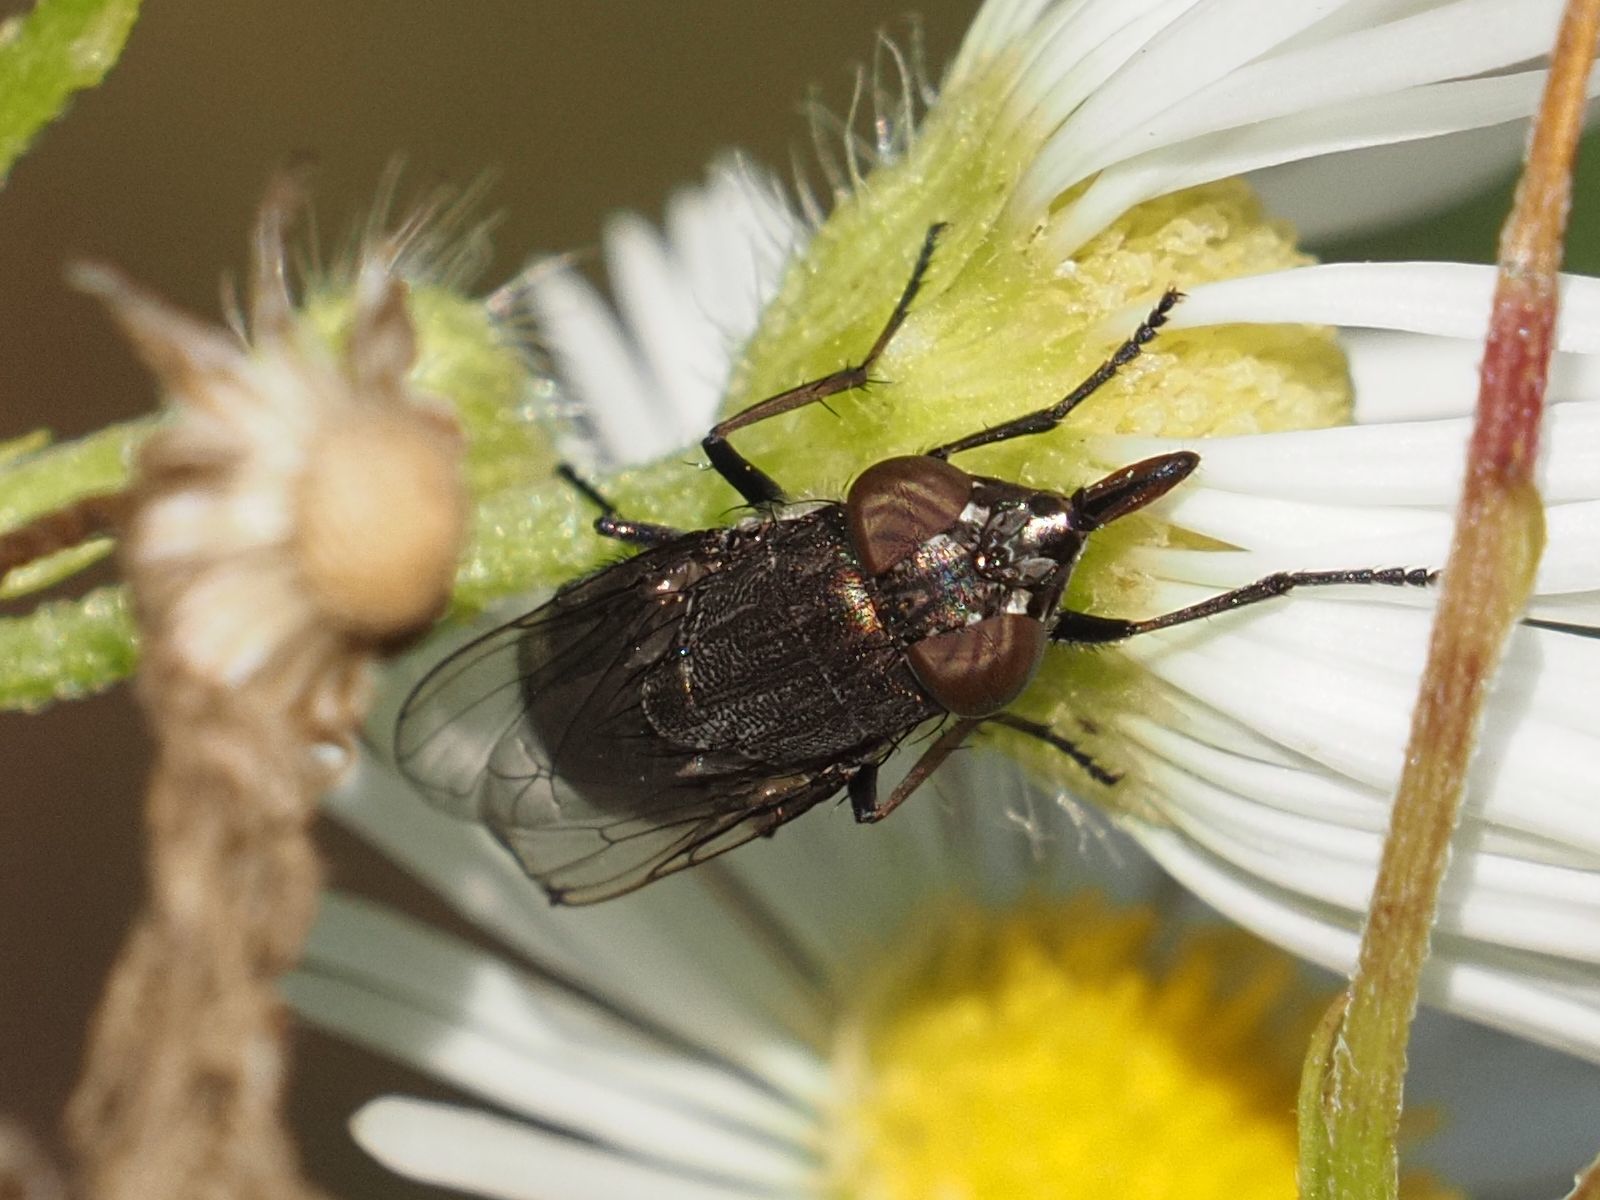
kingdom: Animalia
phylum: Arthropoda
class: Insecta
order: Diptera
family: Calliphoridae
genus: Stomorhina
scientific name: Stomorhina lunata
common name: Locust blowfly
